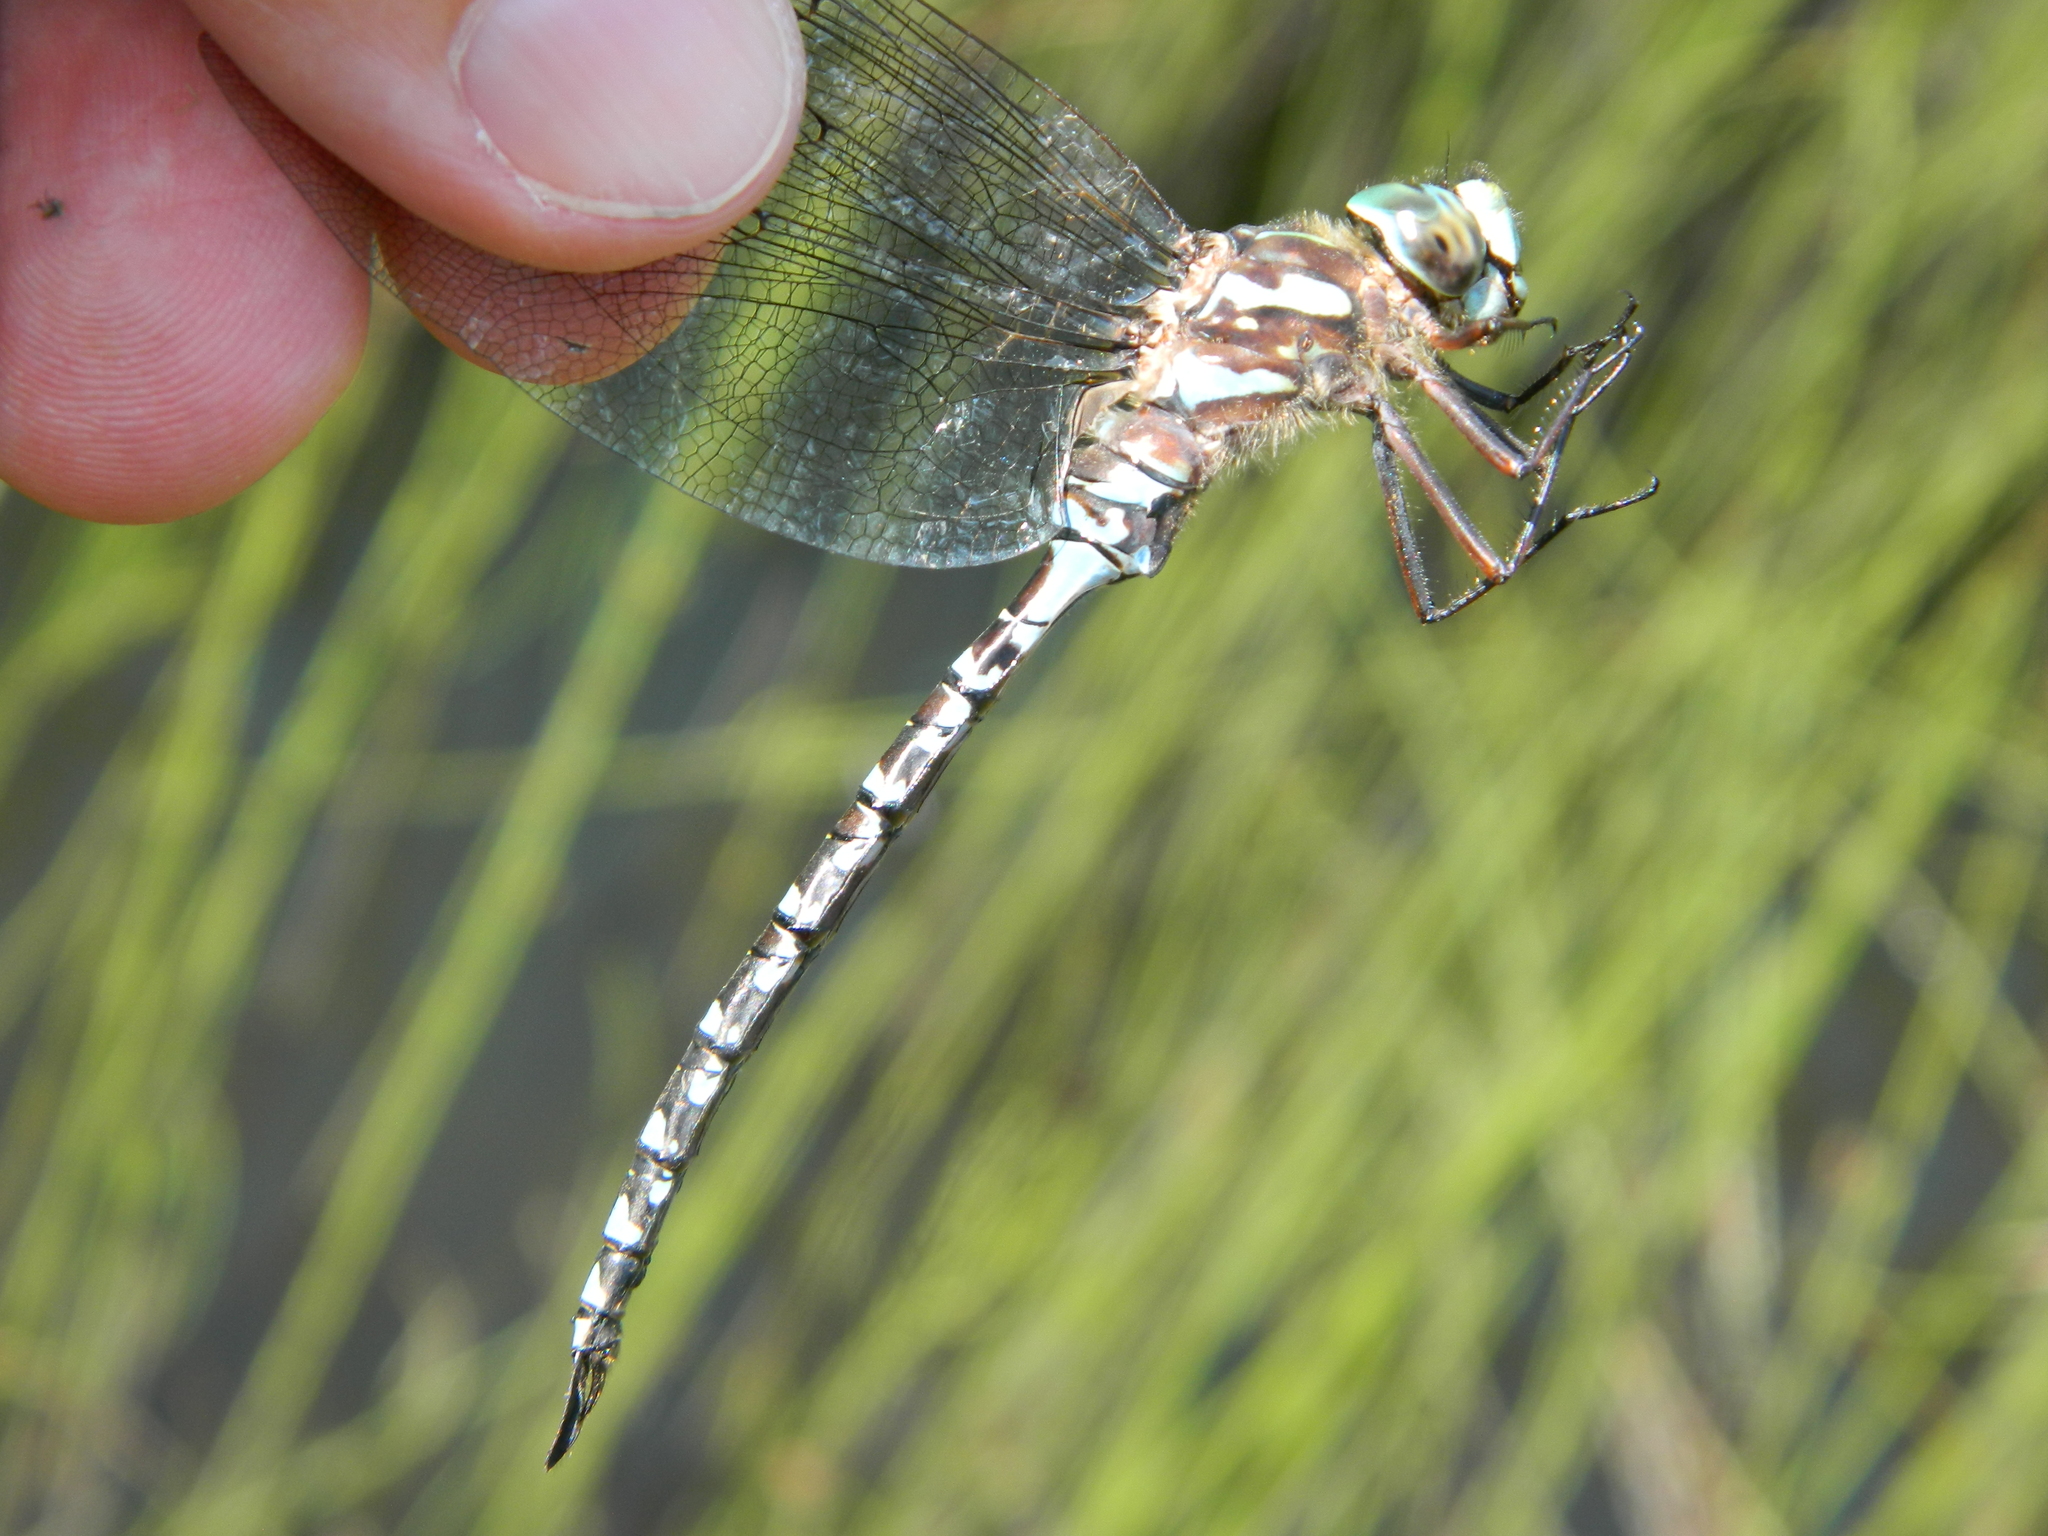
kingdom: Animalia
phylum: Arthropoda
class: Insecta
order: Odonata
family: Aeshnidae
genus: Aeshna
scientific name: Aeshna canadensis
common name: Canada darner
